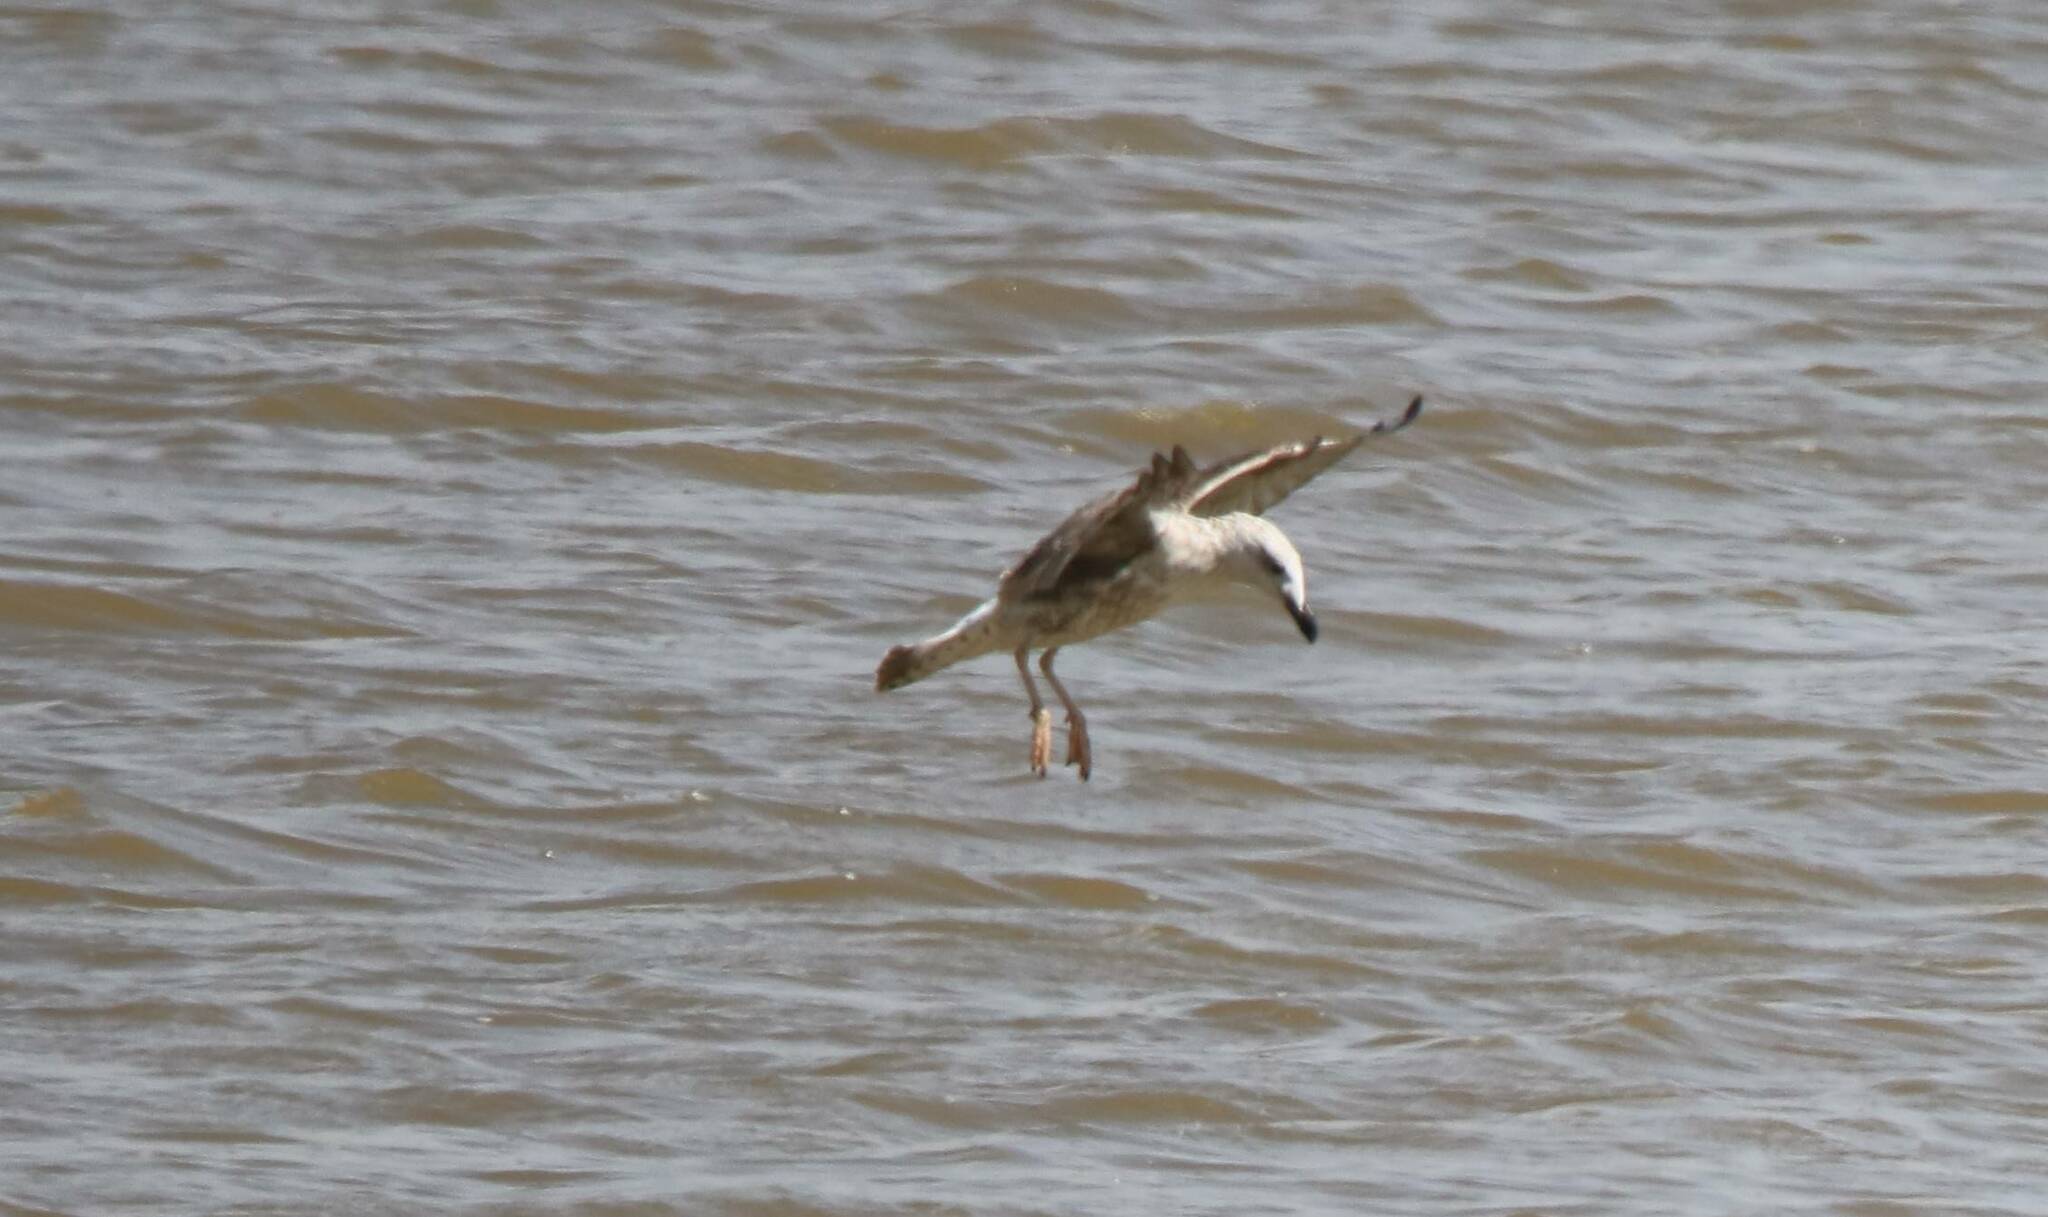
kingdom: Animalia
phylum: Chordata
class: Aves
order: Charadriiformes
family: Laridae
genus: Larus
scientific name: Larus michahellis
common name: Yellow-legged gull
